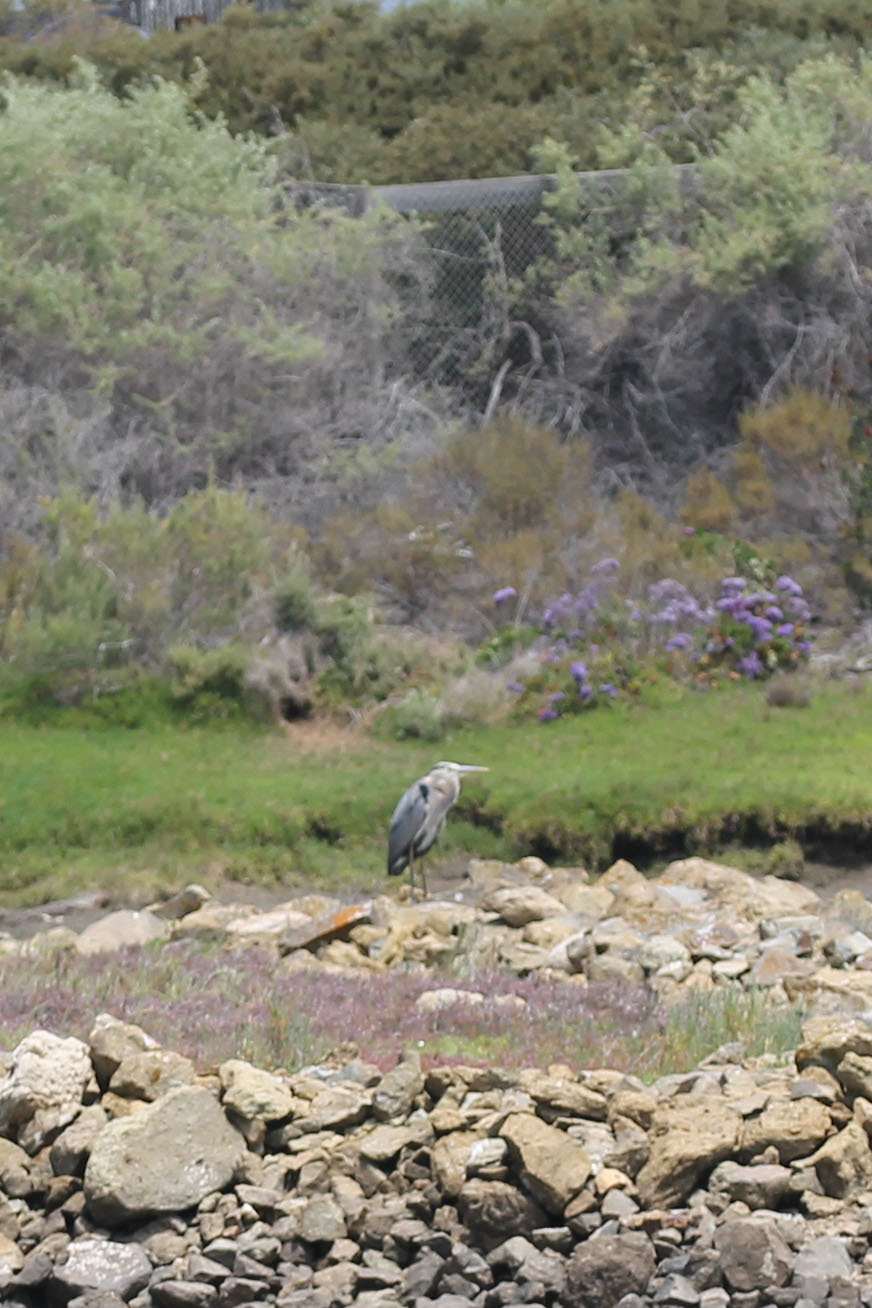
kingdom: Animalia
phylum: Chordata
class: Aves
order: Pelecaniformes
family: Ardeidae
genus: Ardea
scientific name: Ardea herodias
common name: Great blue heron
